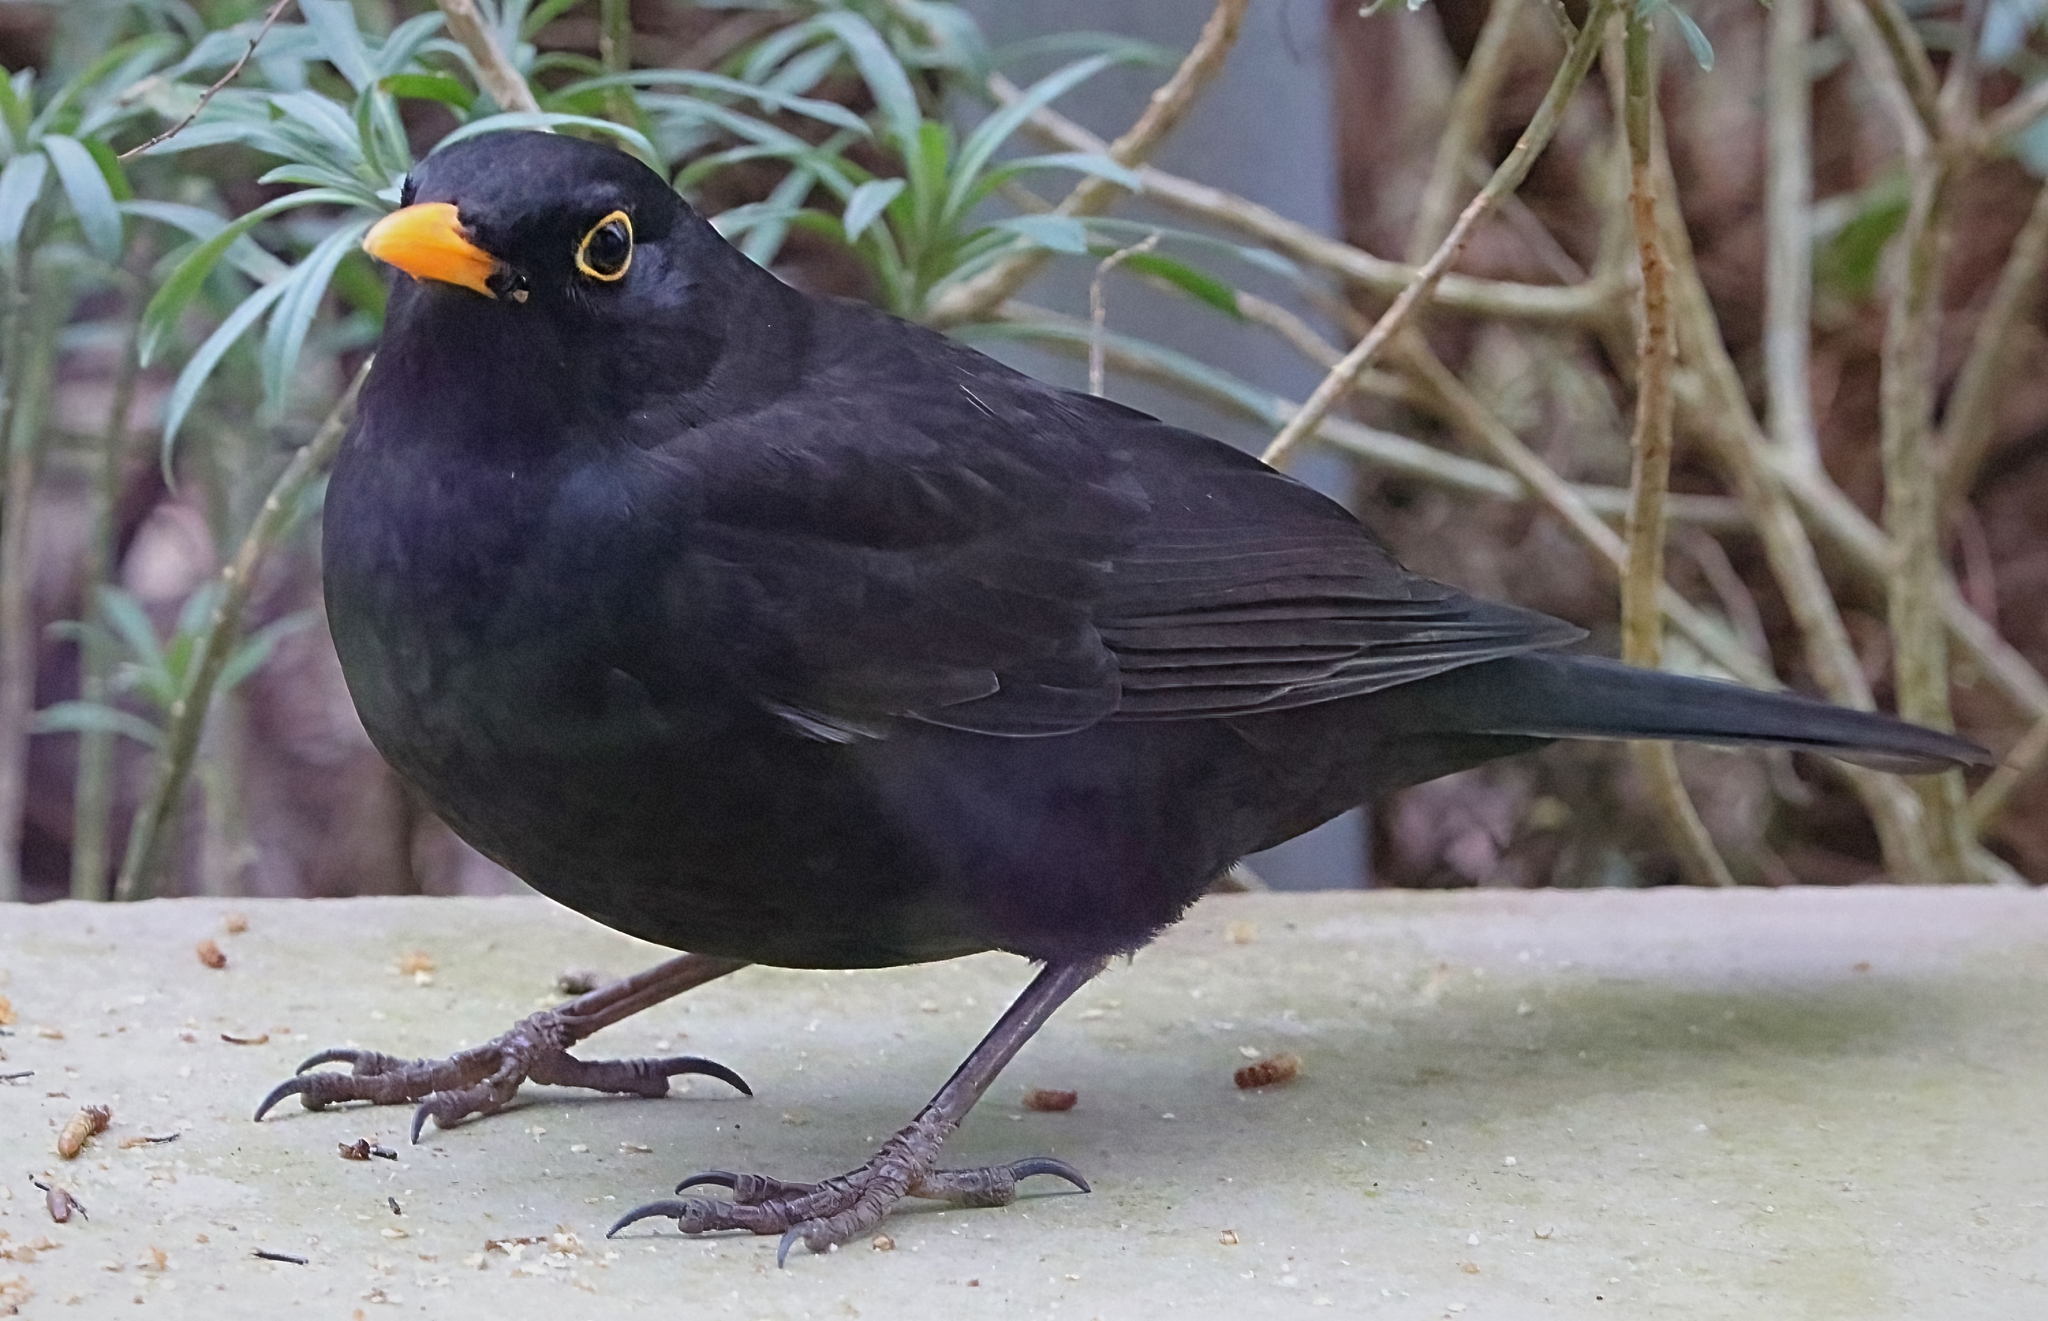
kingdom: Animalia
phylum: Chordata
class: Aves
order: Passeriformes
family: Turdidae
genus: Turdus
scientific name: Turdus merula
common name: Common blackbird
